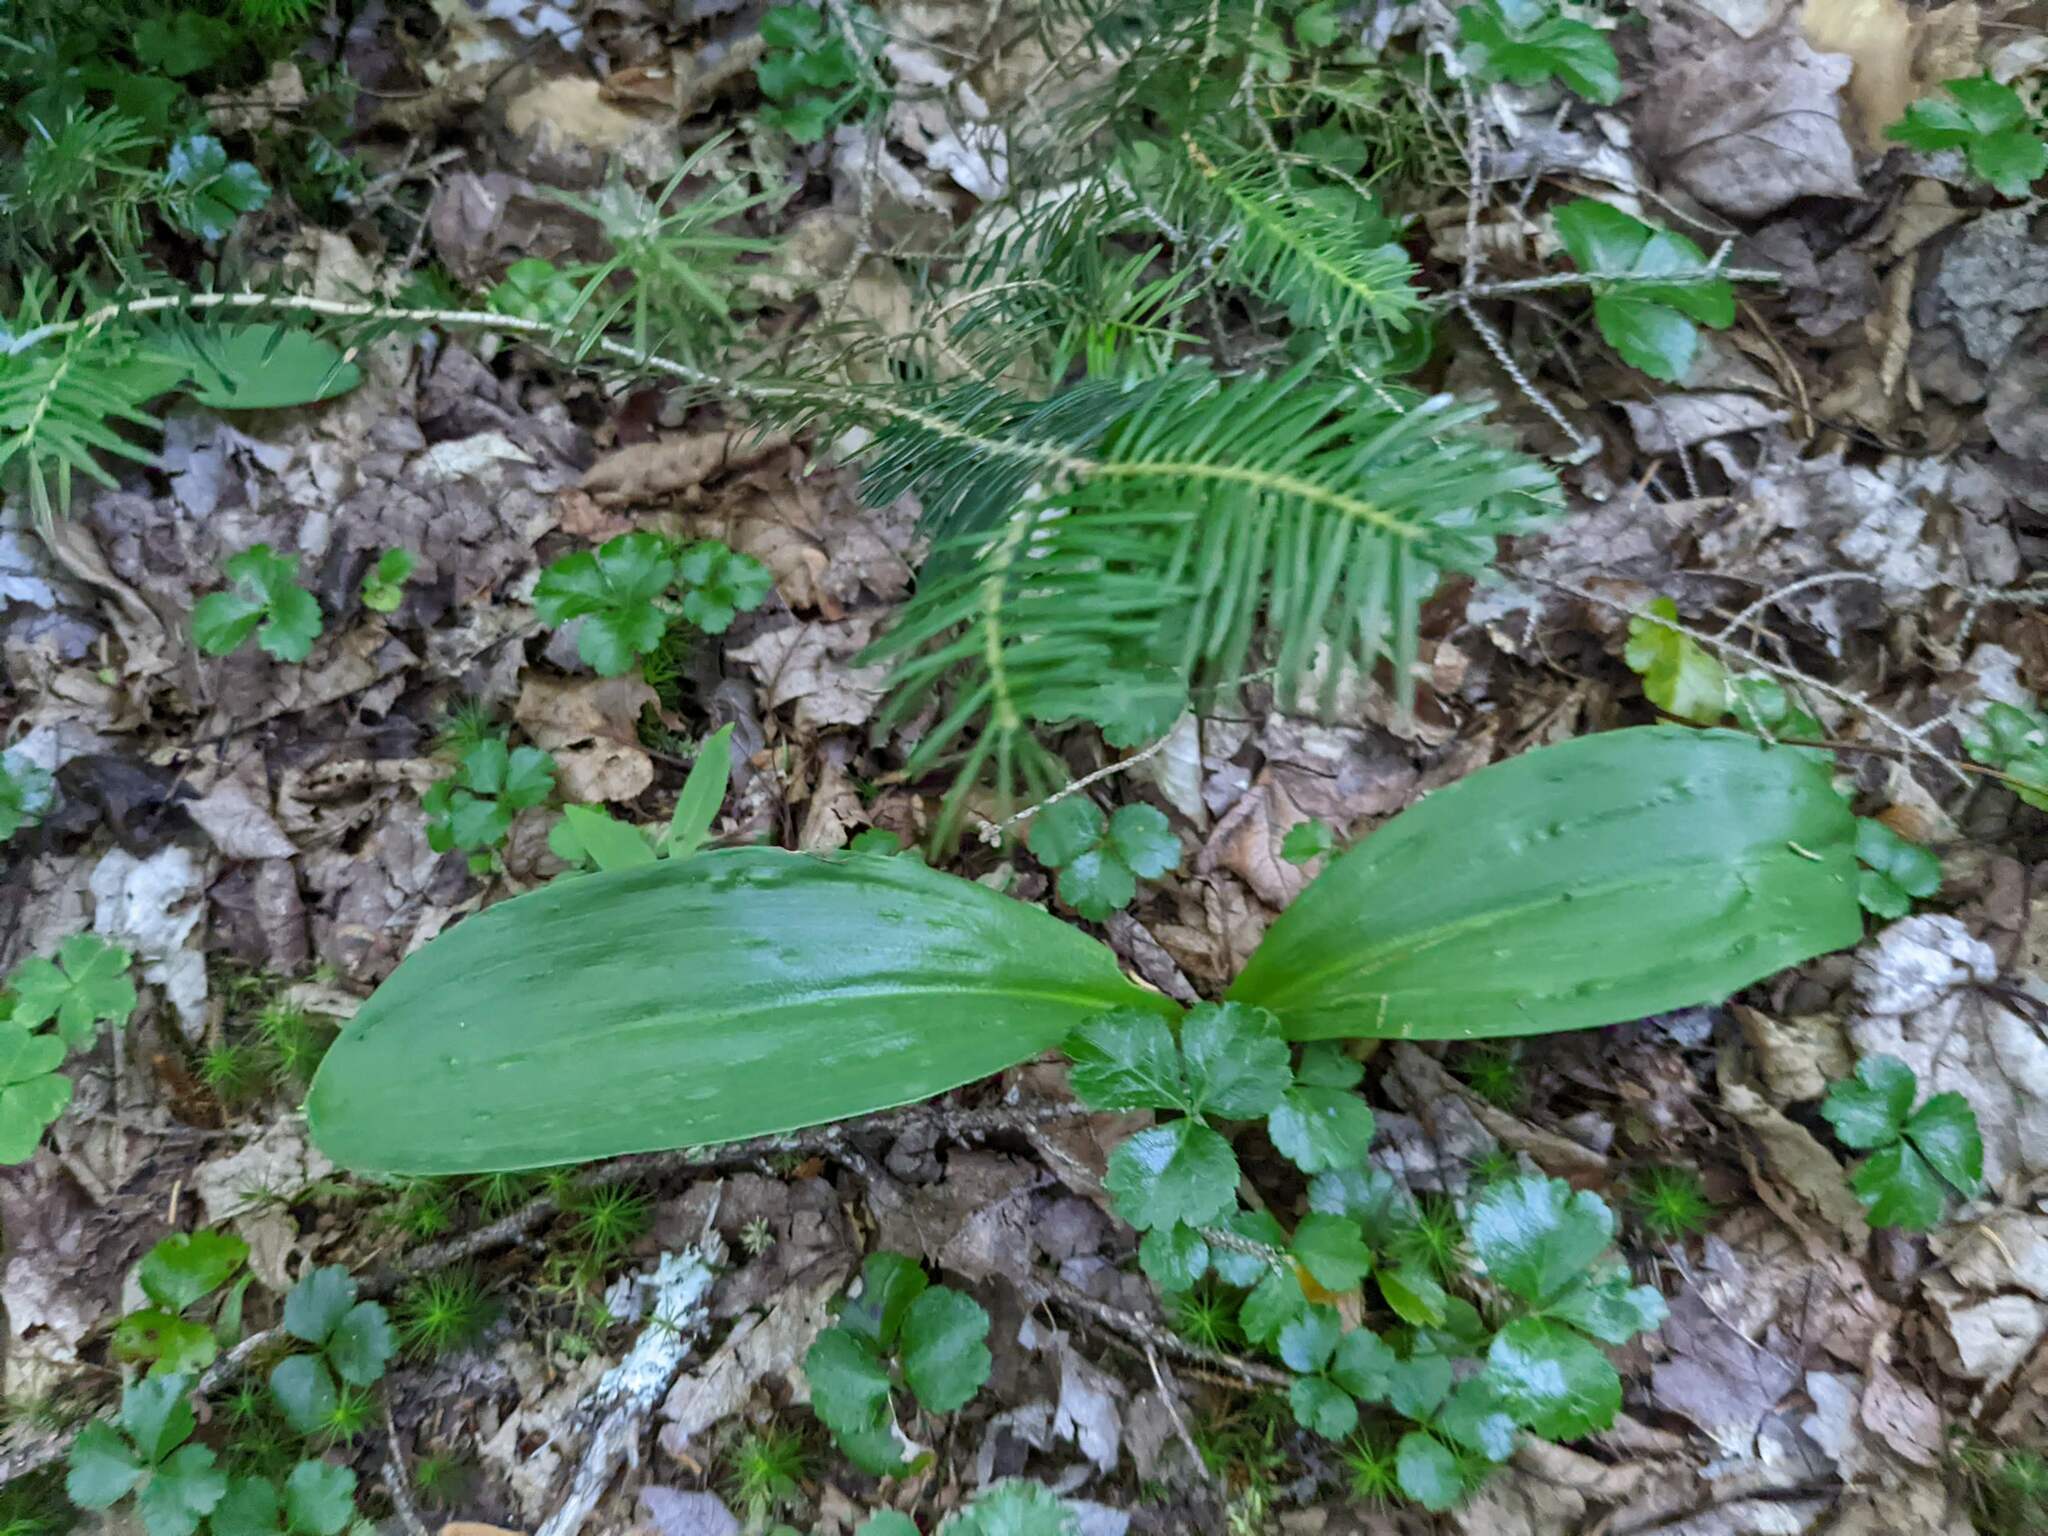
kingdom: Plantae
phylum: Tracheophyta
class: Pinopsida
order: Pinales
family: Pinaceae
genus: Abies
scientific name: Abies balsamea
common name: Balsam fir
